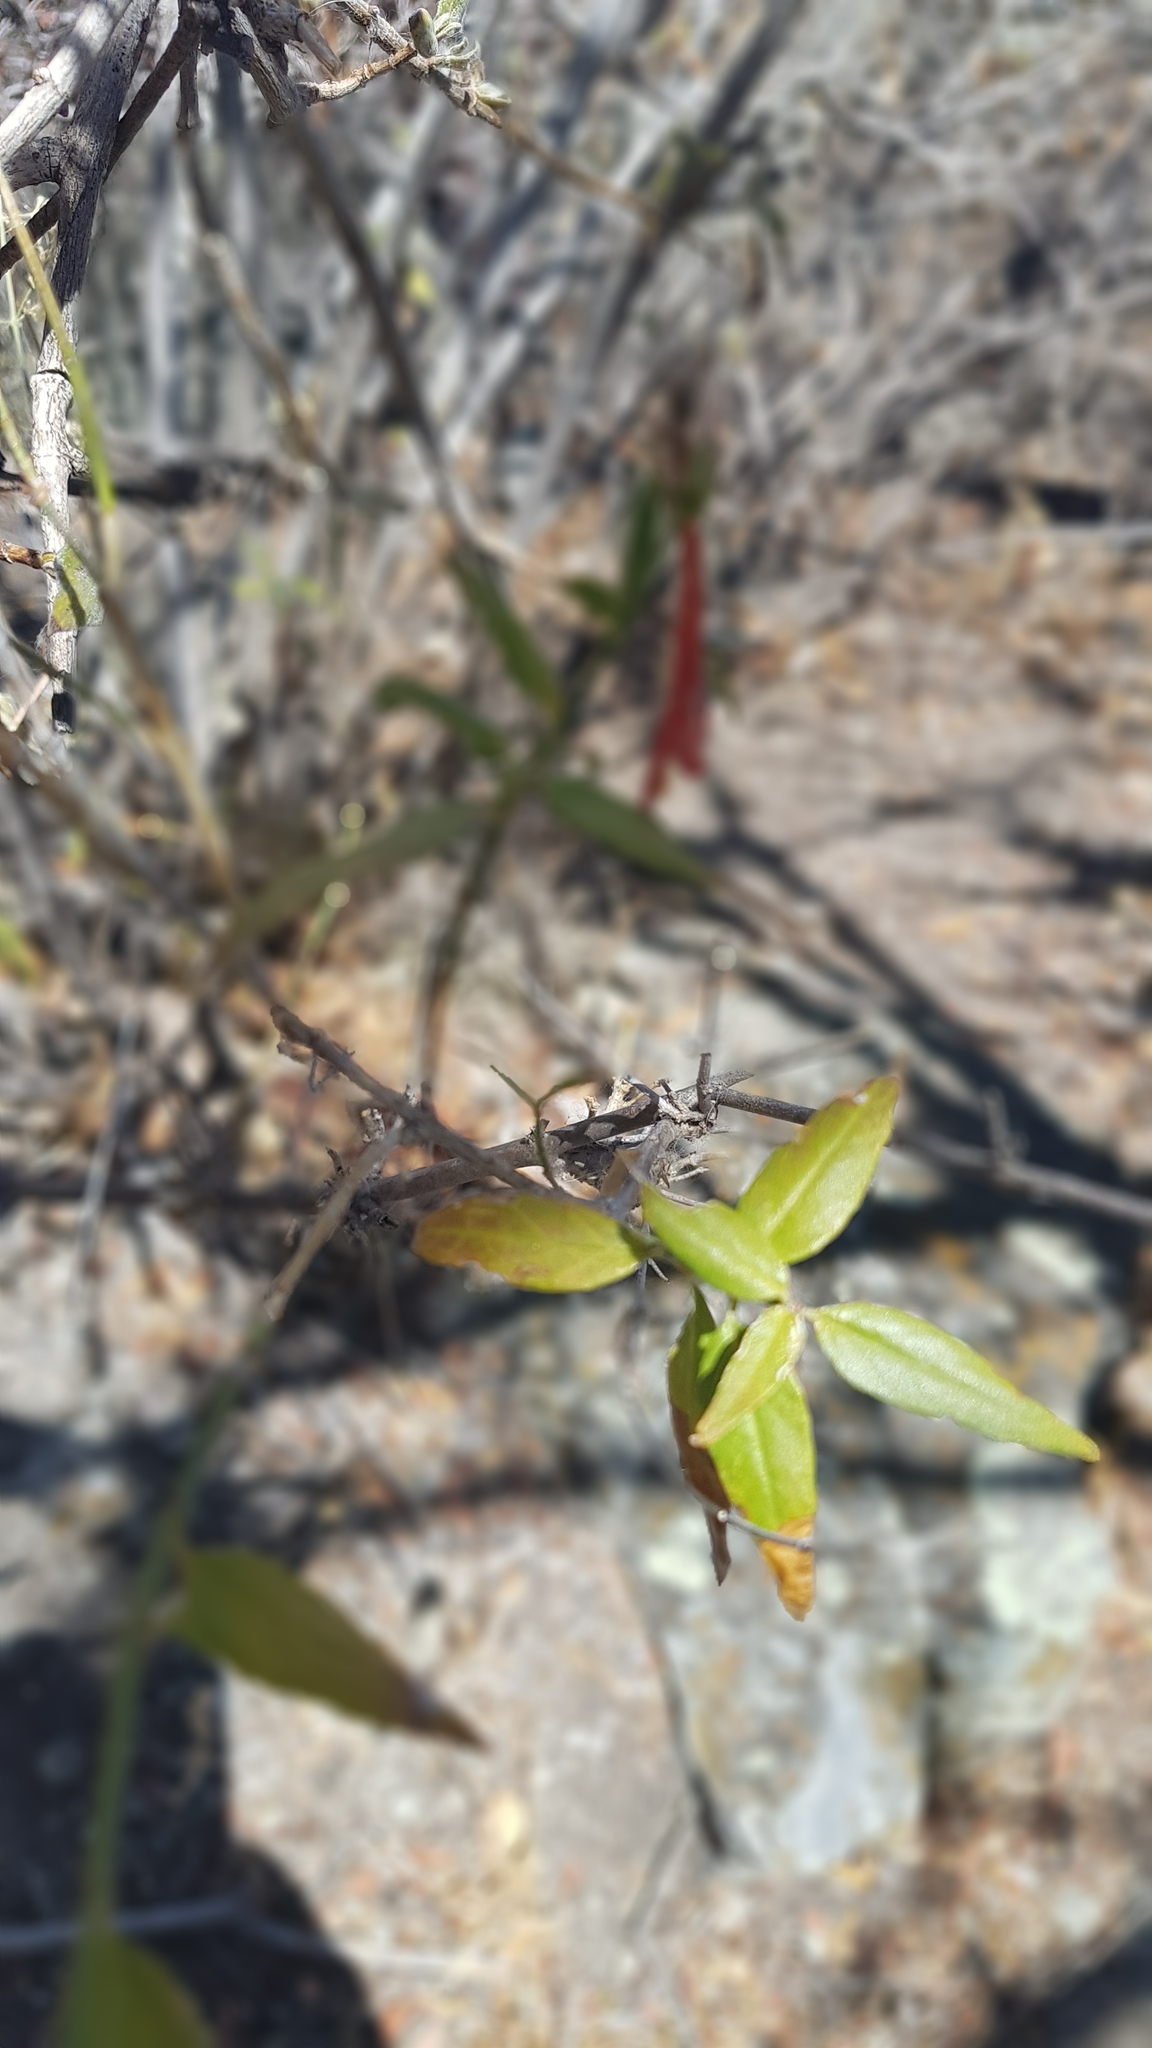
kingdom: Plantae
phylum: Tracheophyta
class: Magnoliopsida
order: Lamiales
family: Acanthaceae
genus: Anisacanthus
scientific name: Anisacanthus quadrifidus
